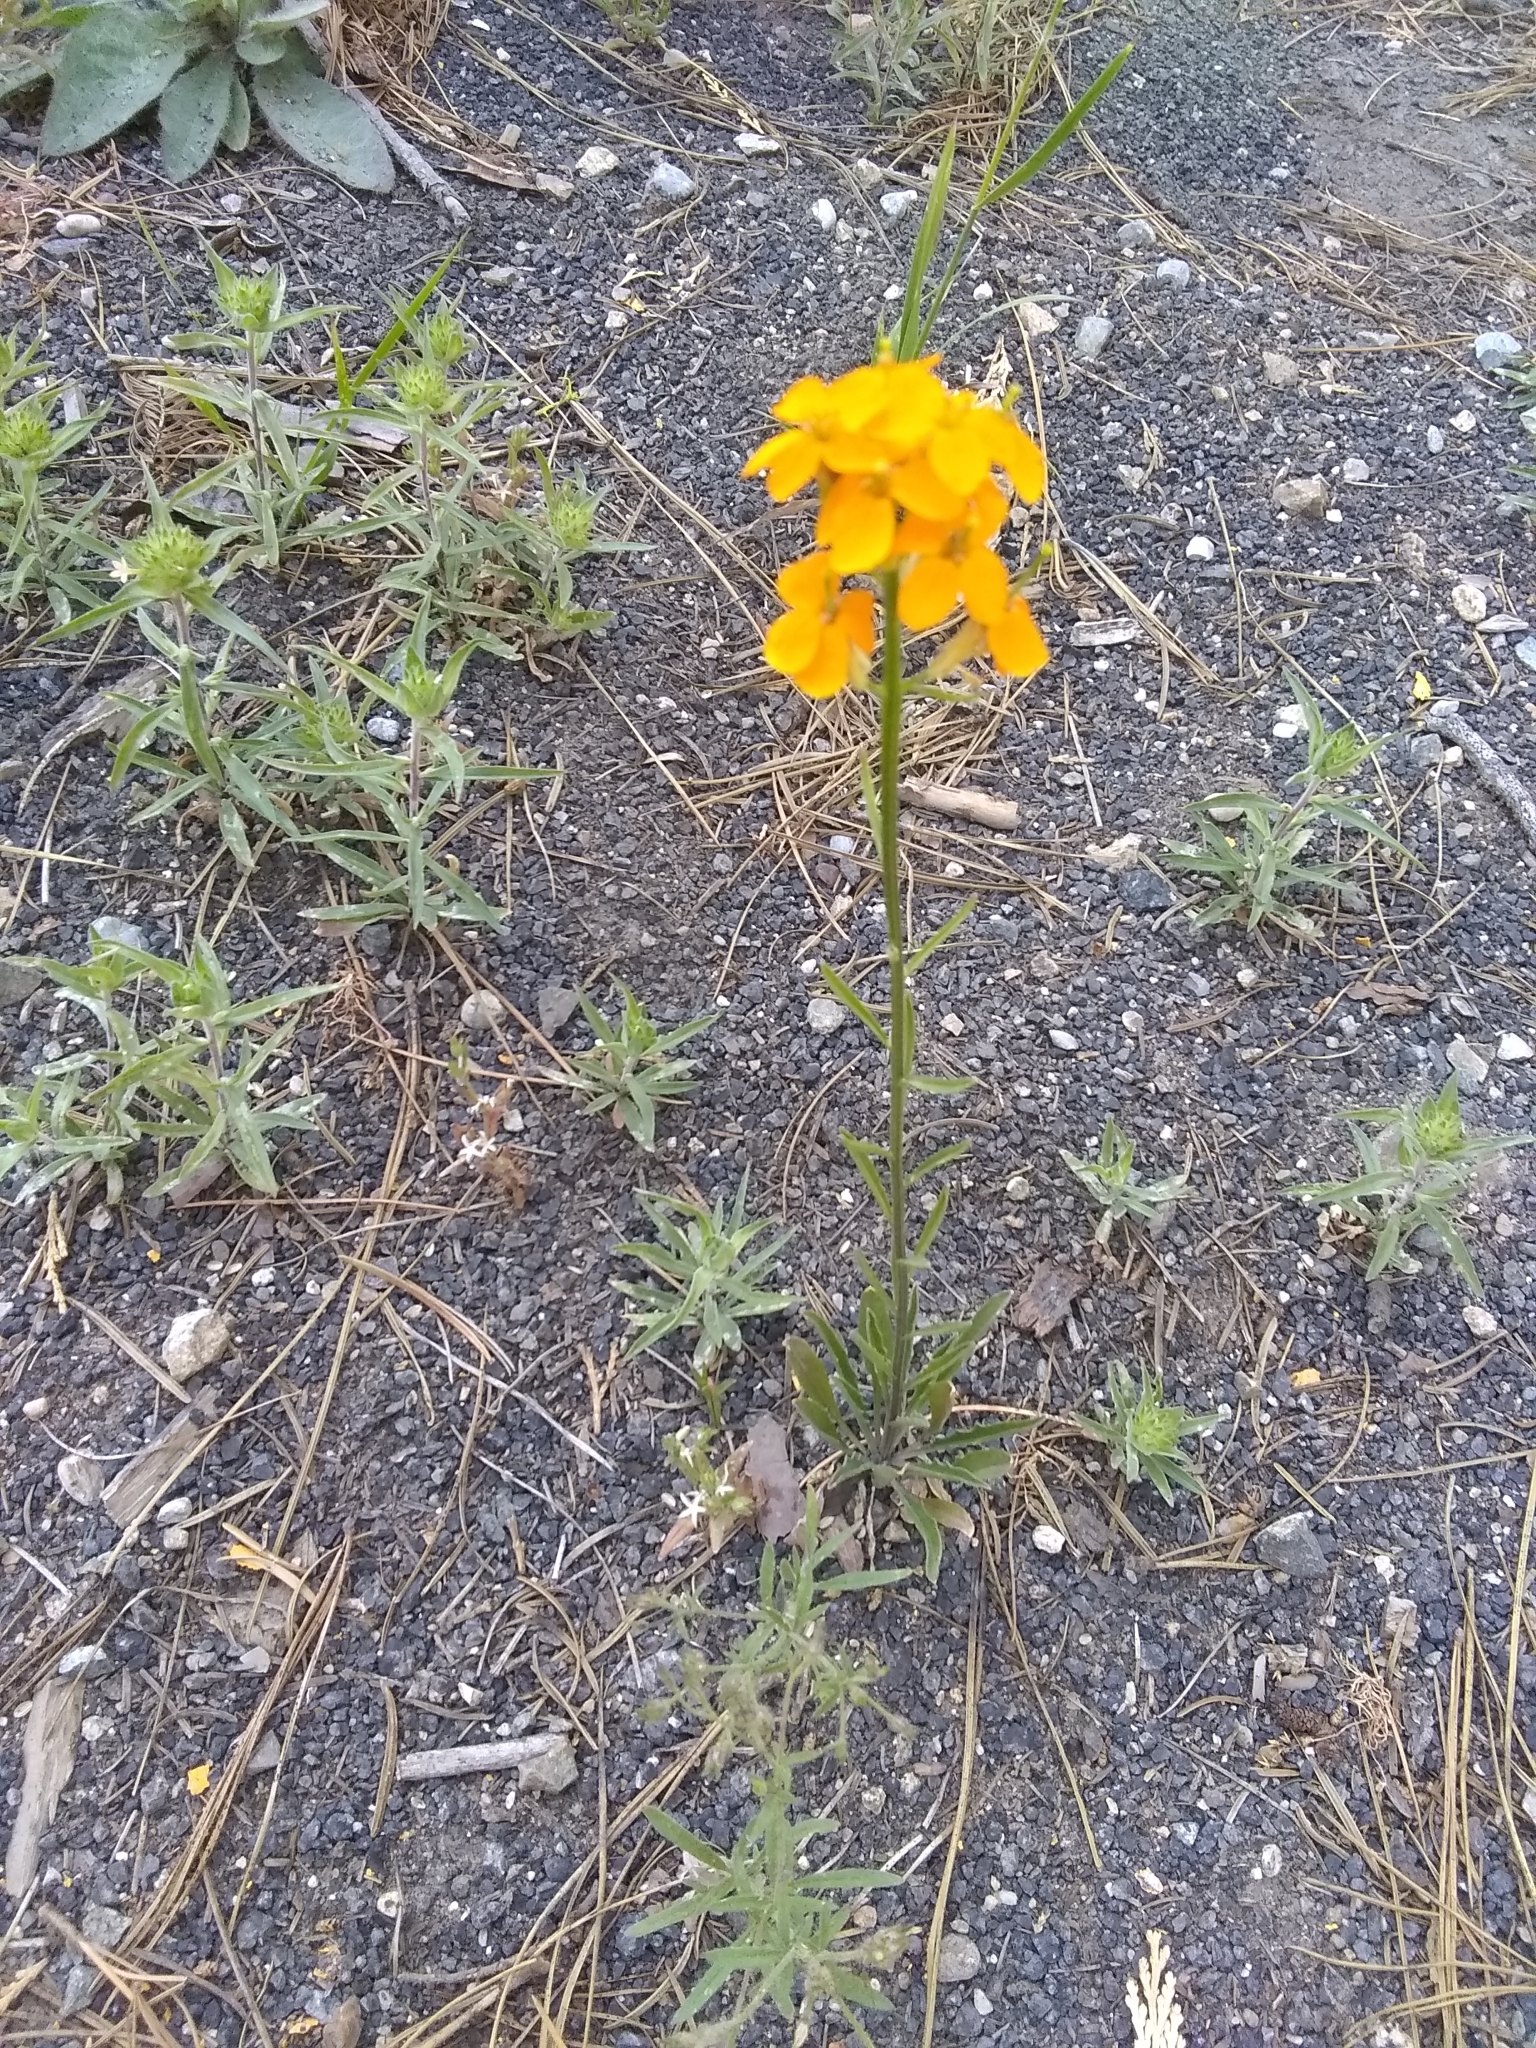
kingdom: Plantae
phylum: Tracheophyta
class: Magnoliopsida
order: Brassicales
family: Brassicaceae
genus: Erysimum
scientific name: Erysimum capitatum
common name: Western wallflower
